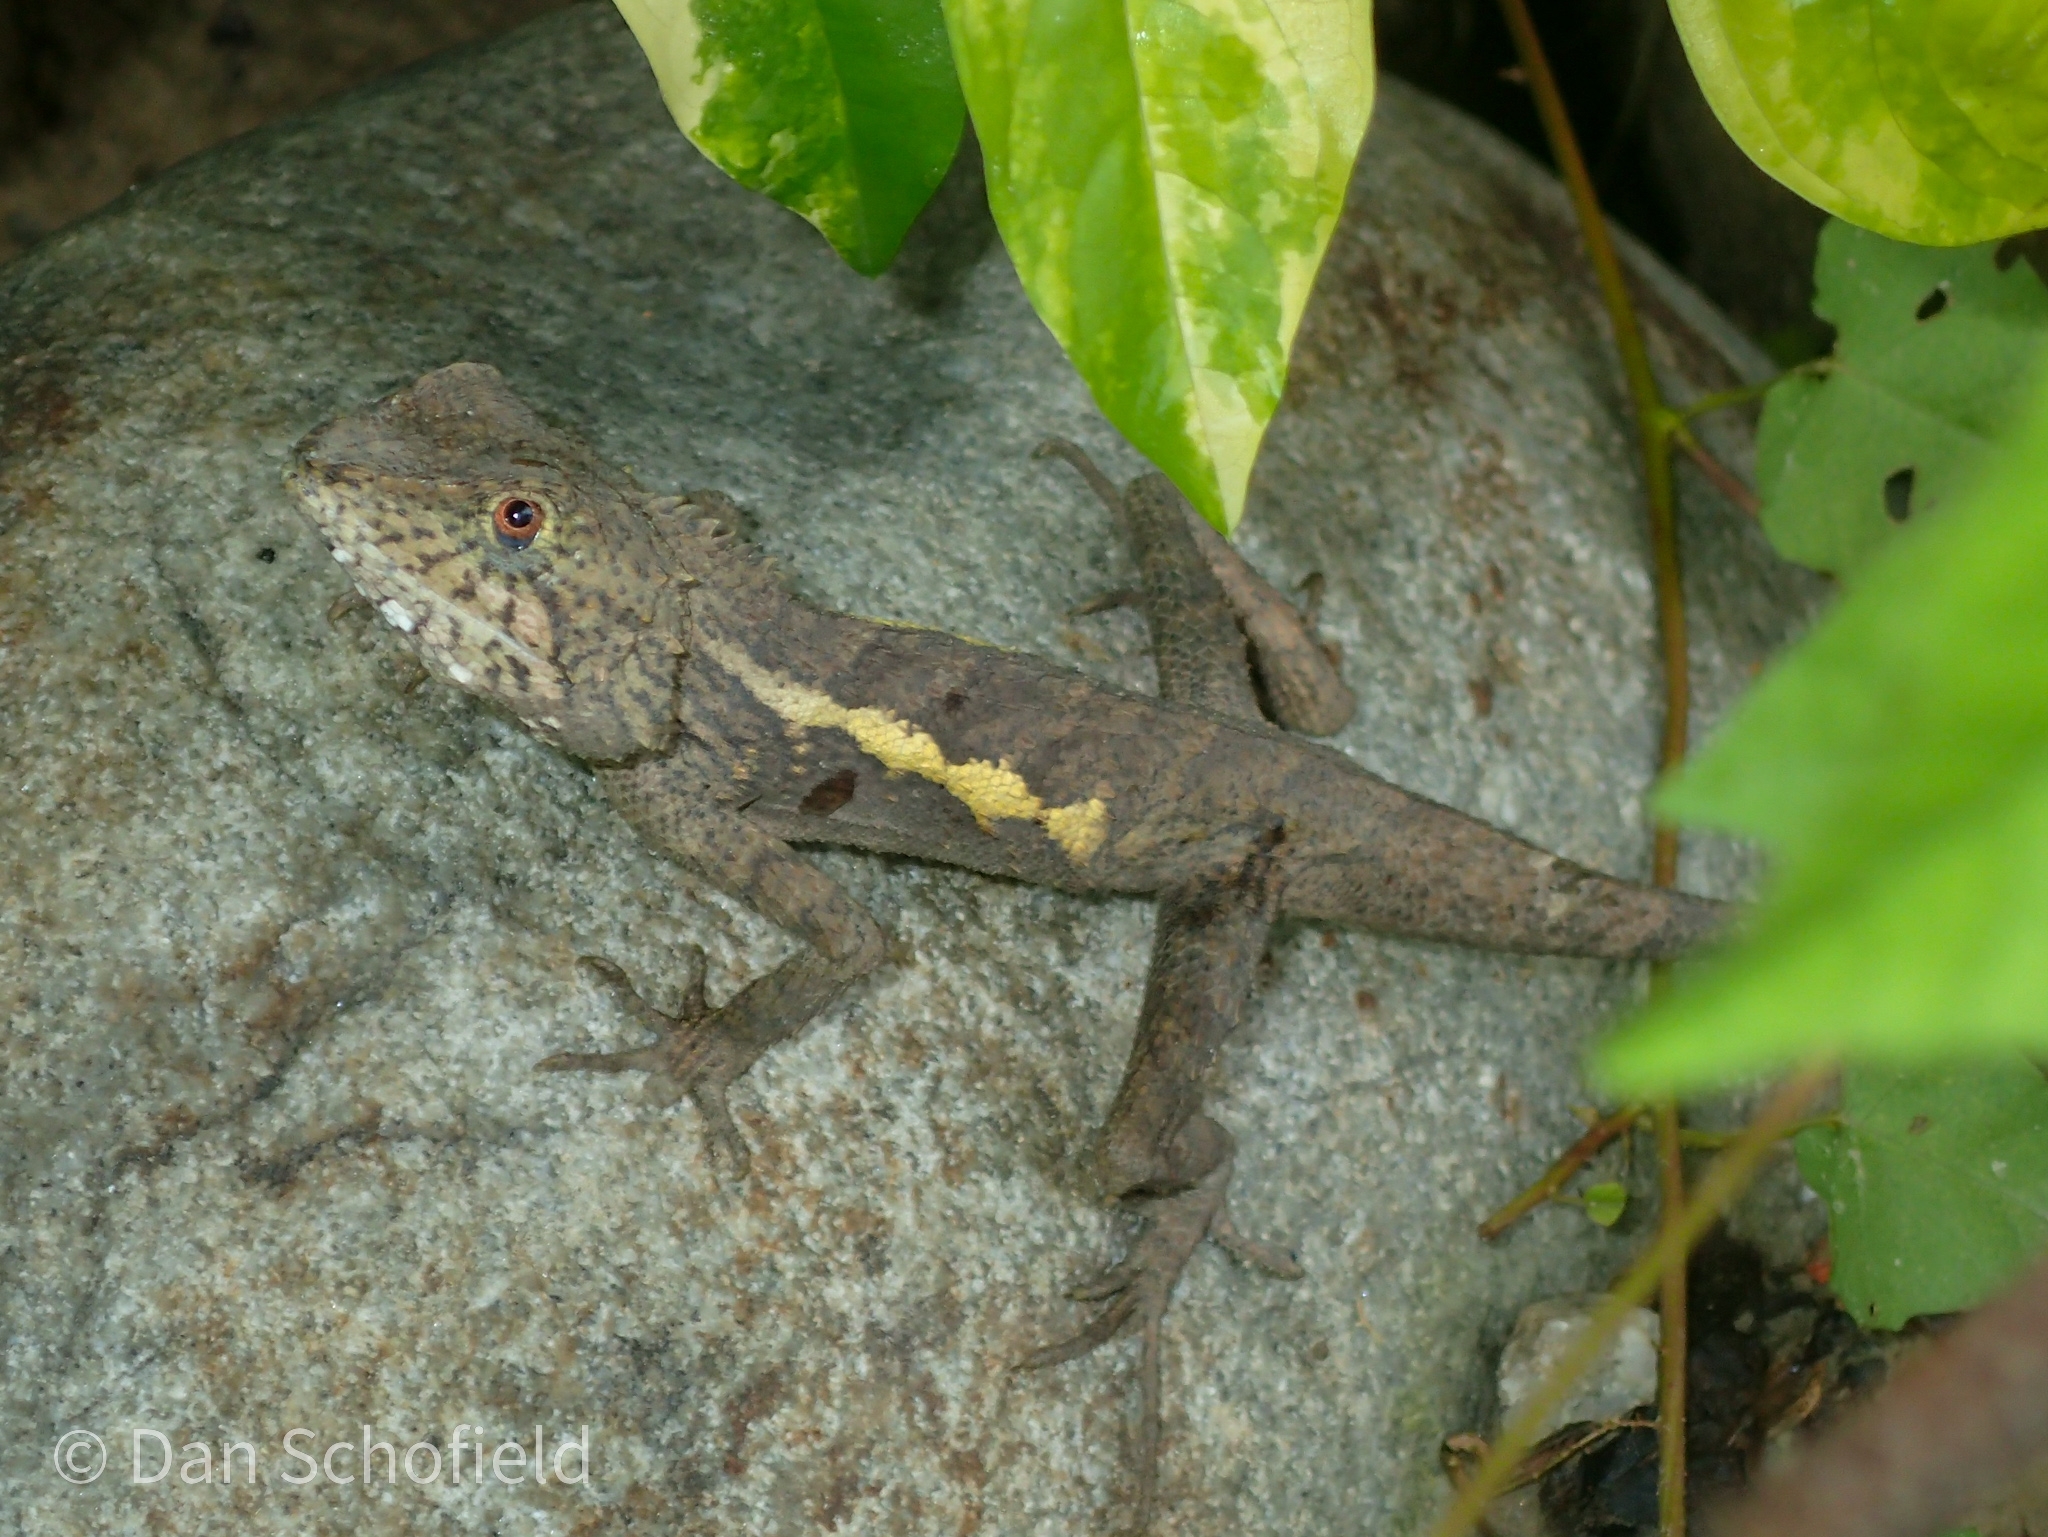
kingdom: Animalia
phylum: Chordata
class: Squamata
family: Agamidae
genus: Diploderma
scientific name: Diploderma swinhonis
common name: Taiwan japalure
